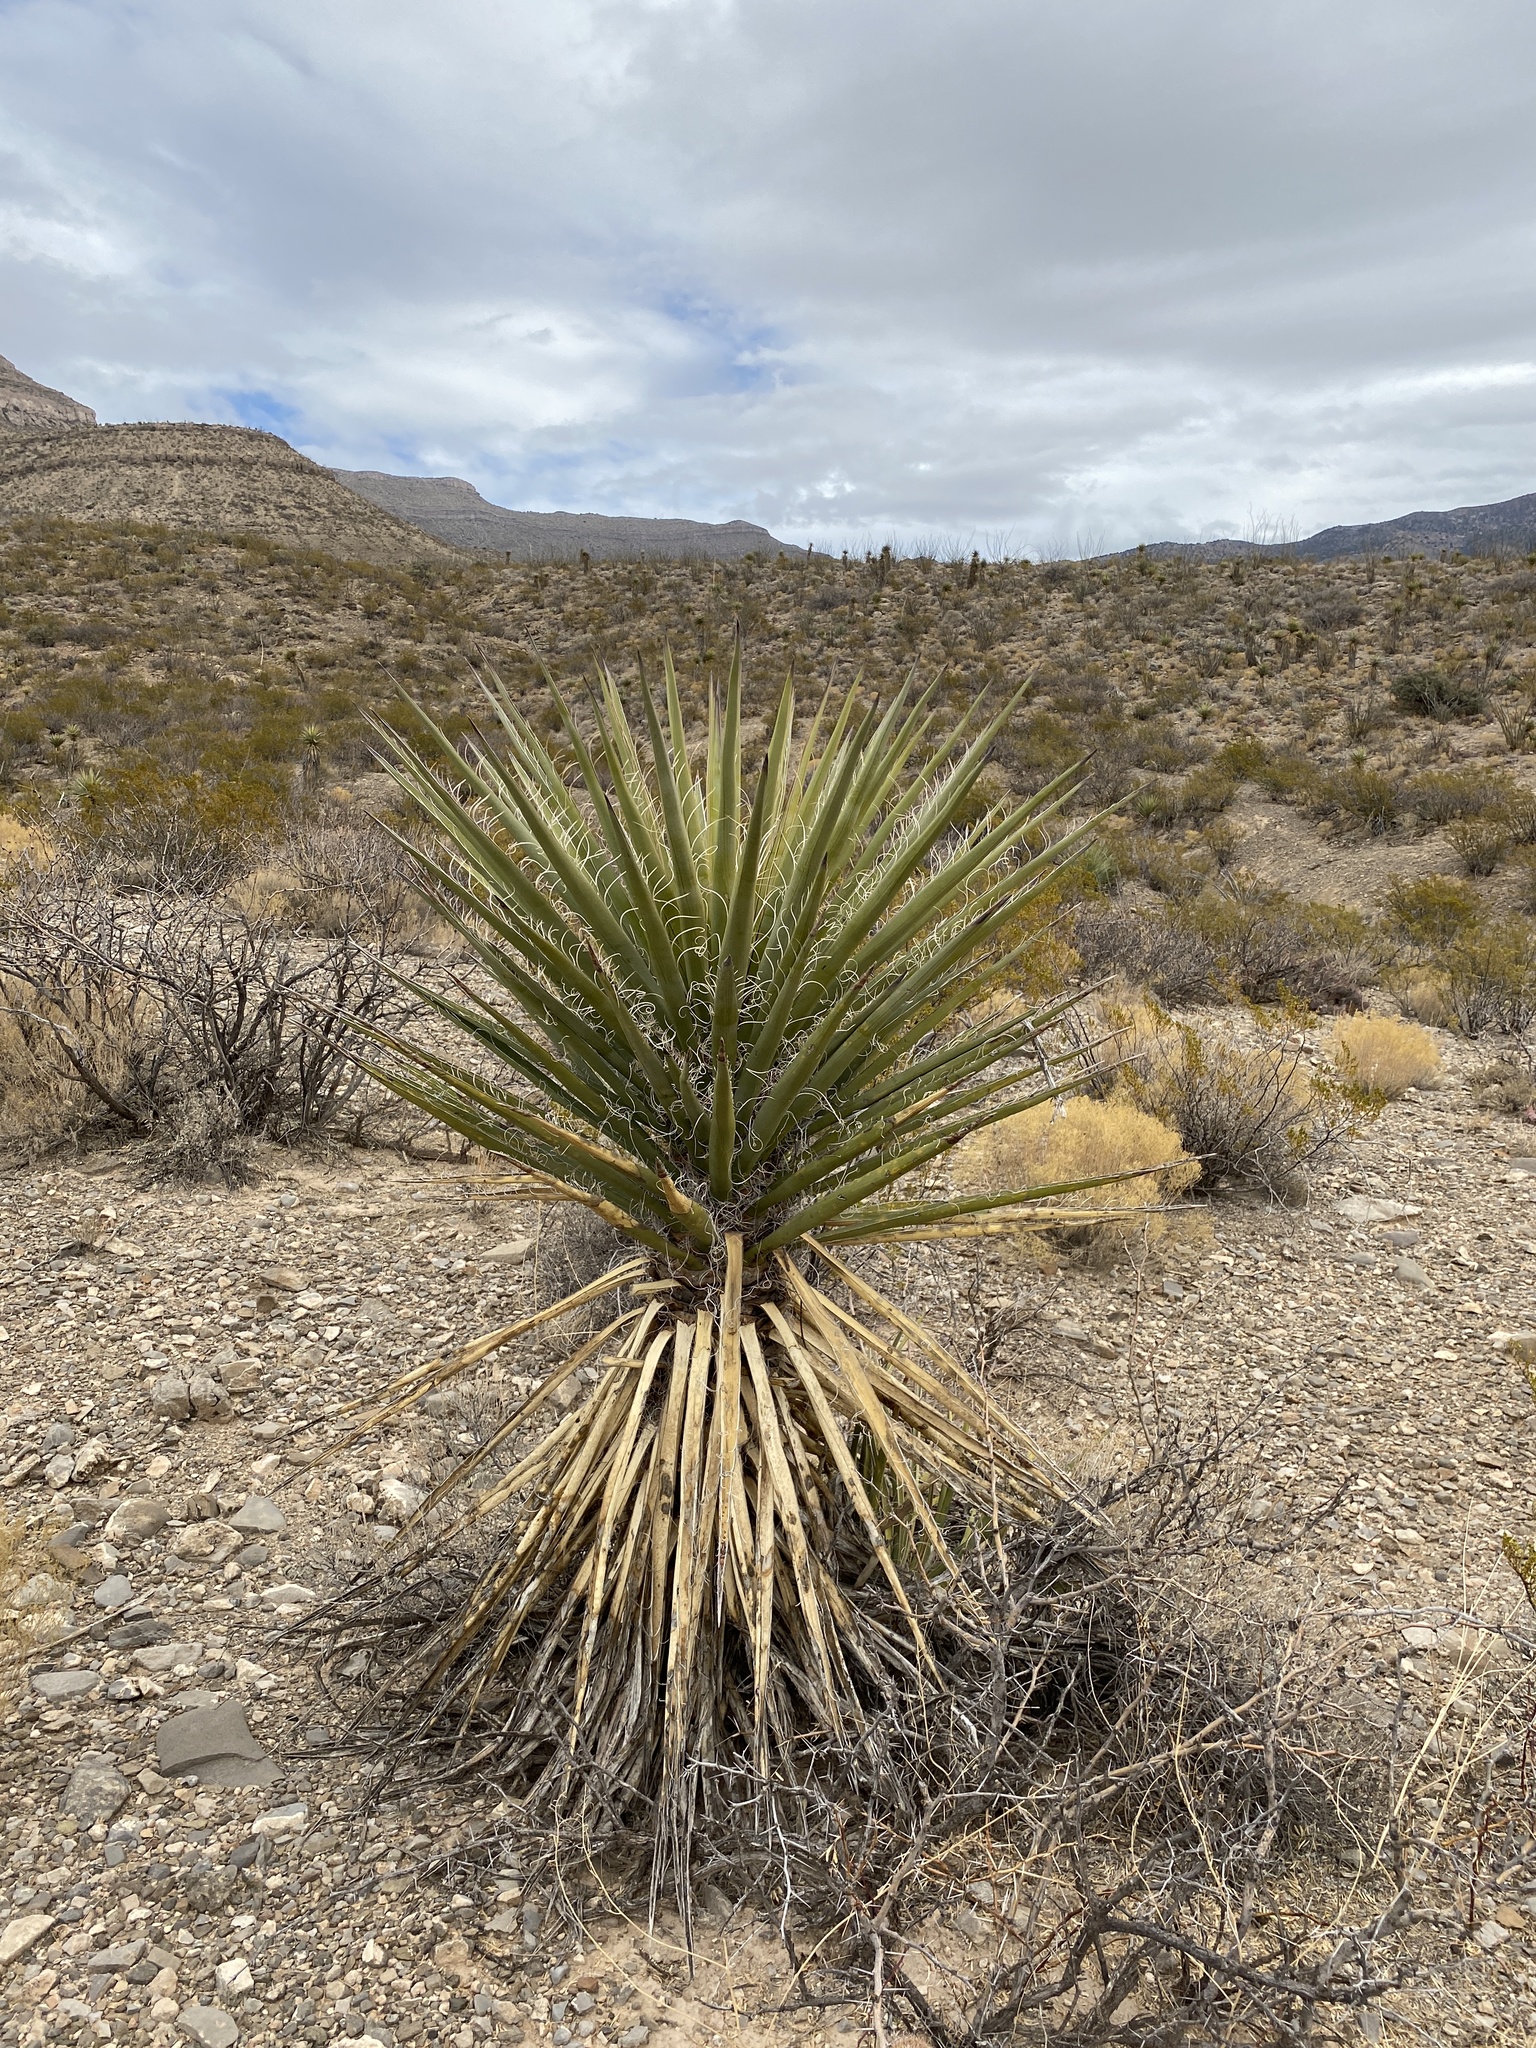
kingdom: Plantae
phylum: Tracheophyta
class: Liliopsida
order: Asparagales
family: Asparagaceae
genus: Yucca
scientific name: Yucca treculiana
